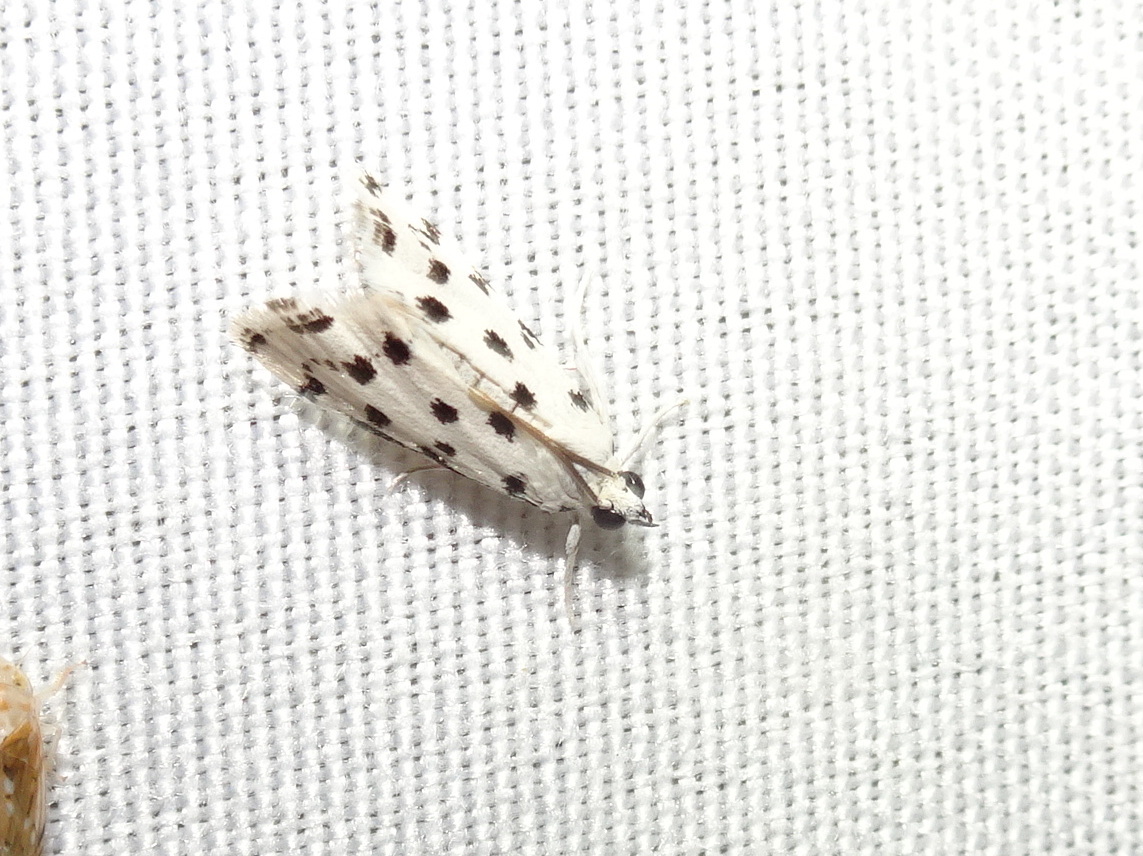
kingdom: Animalia
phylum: Arthropoda
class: Insecta
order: Lepidoptera
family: Crambidae
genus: Eustixia
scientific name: Eustixia pupula
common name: American cabbage pearl
